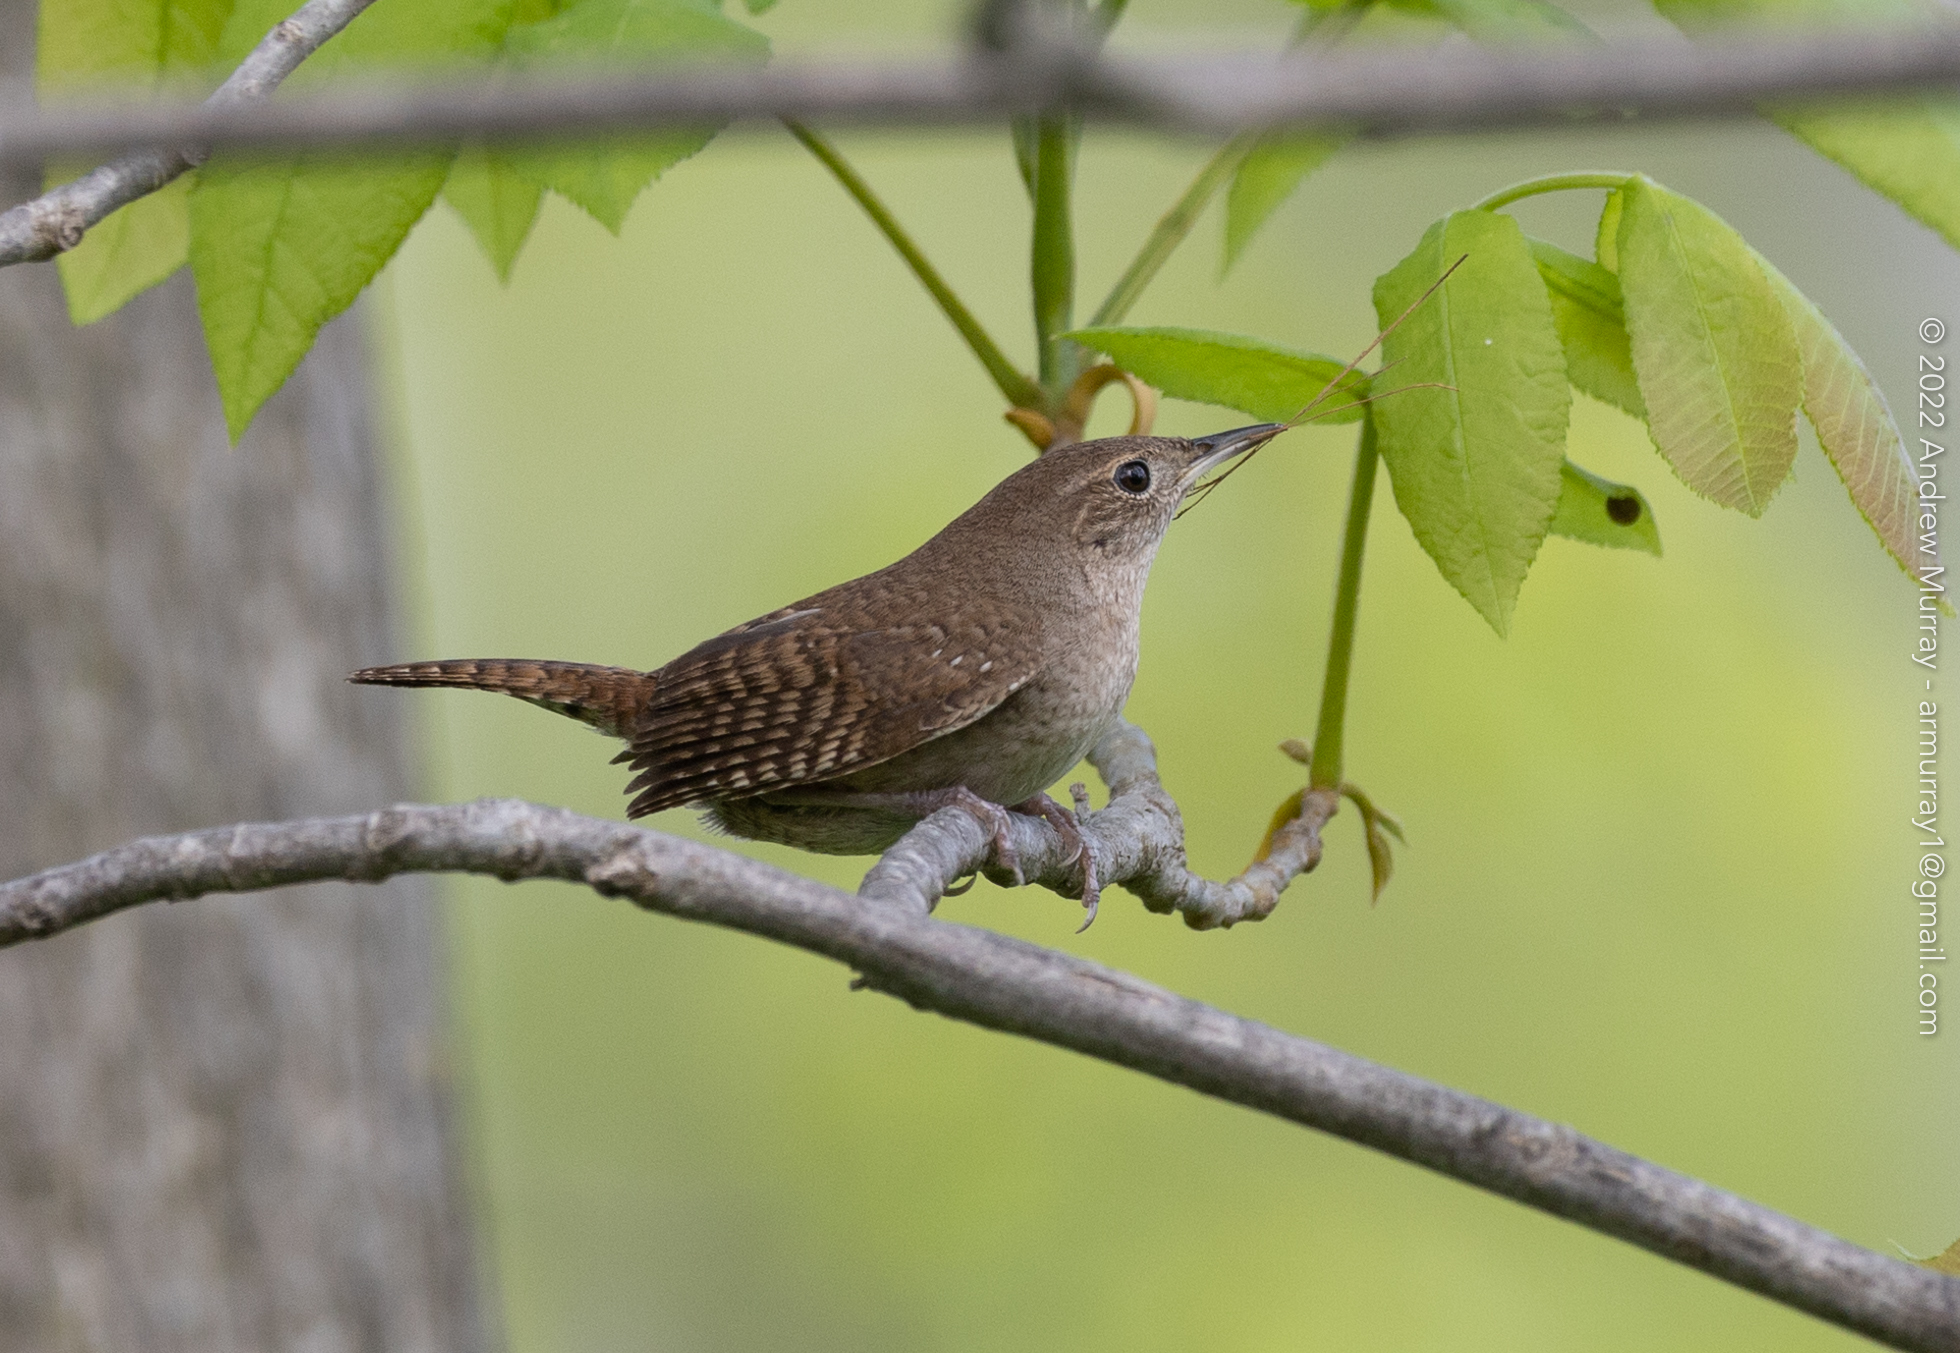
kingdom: Animalia
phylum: Chordata
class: Aves
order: Passeriformes
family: Troglodytidae
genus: Troglodytes
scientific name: Troglodytes aedon
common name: House wren
